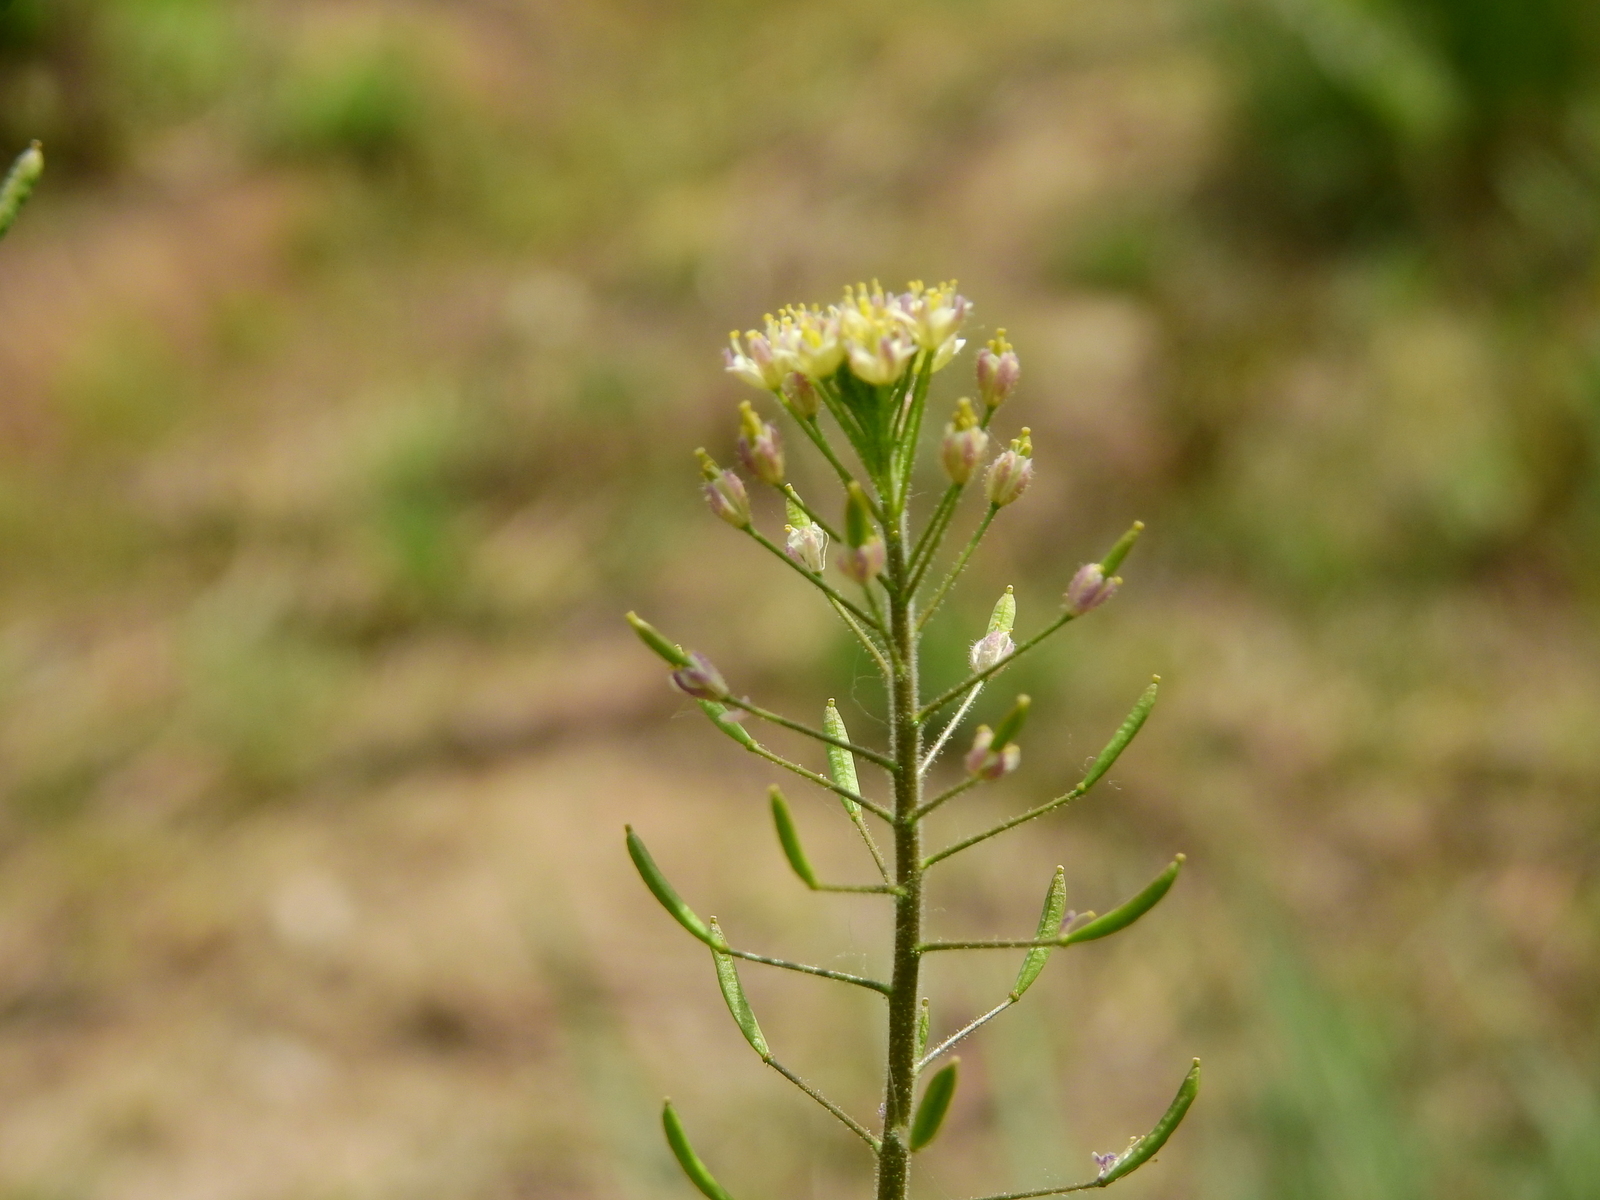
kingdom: Plantae
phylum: Tracheophyta
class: Magnoliopsida
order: Brassicales
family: Brassicaceae
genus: Descurainia
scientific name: Descurainia erodiifolia
